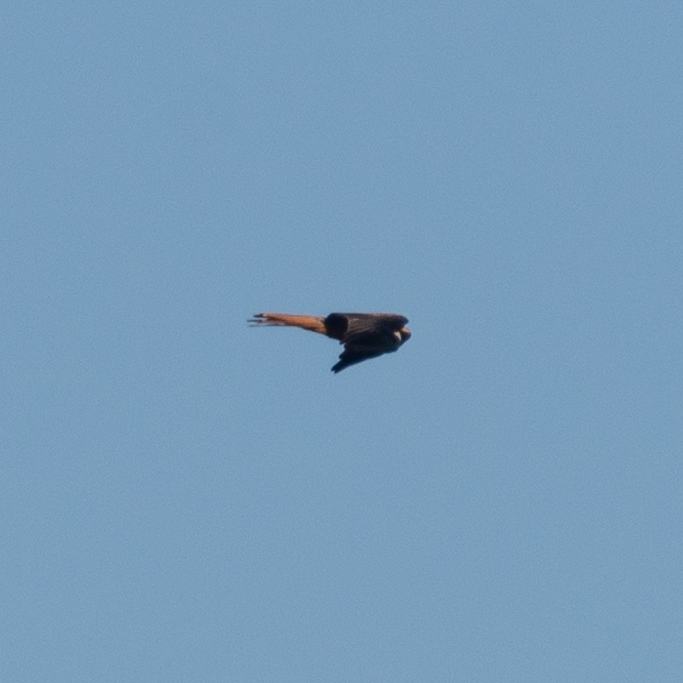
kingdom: Animalia
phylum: Chordata
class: Aves
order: Accipitriformes
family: Accipitridae
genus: Milvus
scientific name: Milvus milvus
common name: Red kite
